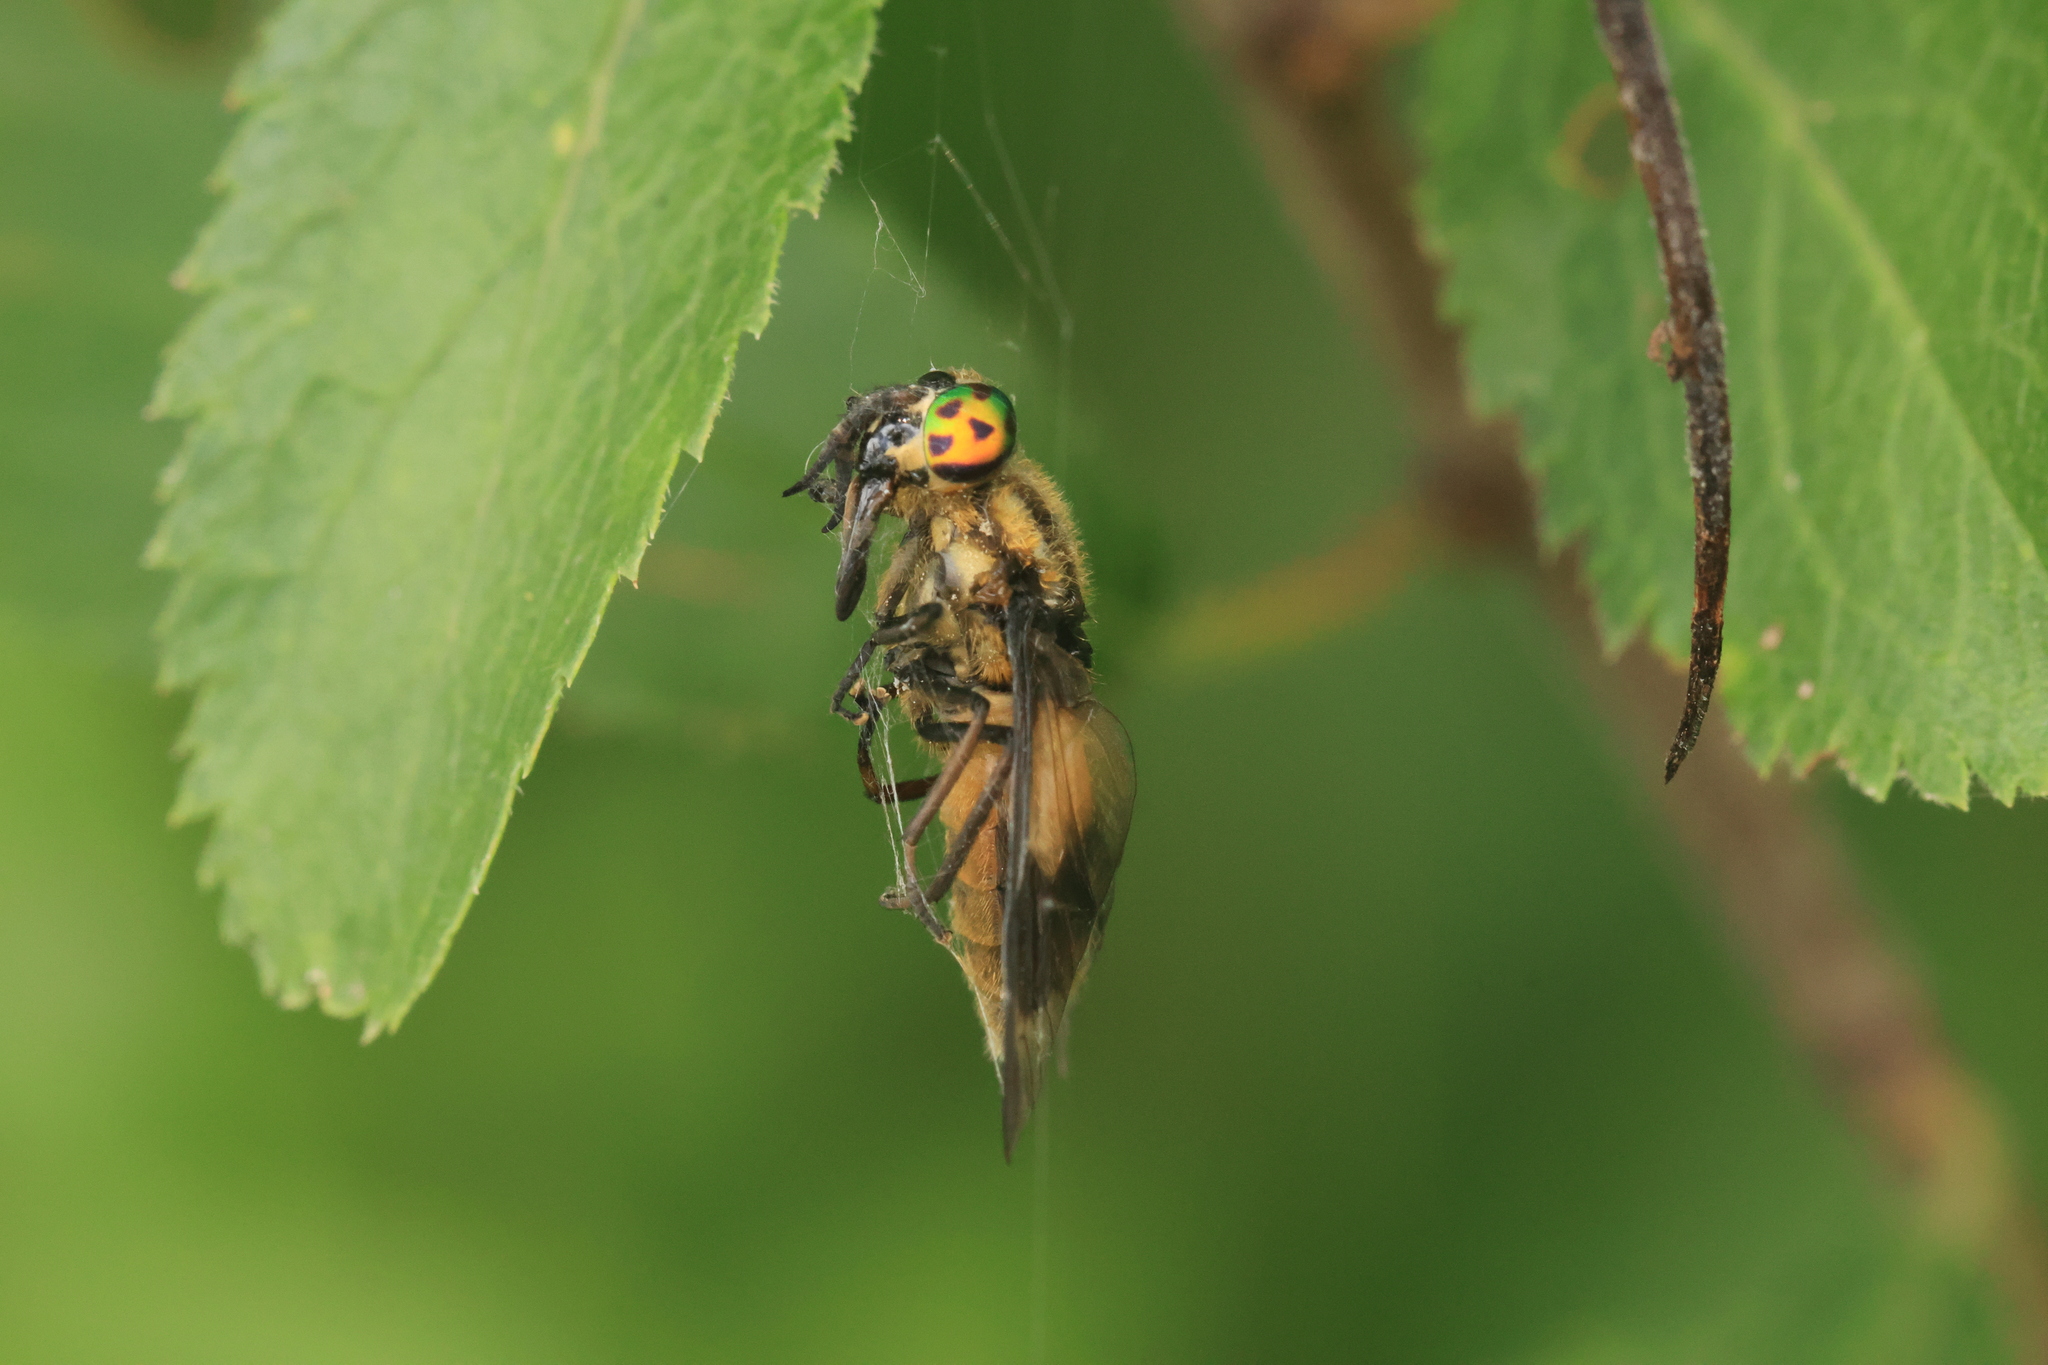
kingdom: Animalia
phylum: Arthropoda
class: Insecta
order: Diptera
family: Tabanidae
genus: Chrysops
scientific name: Chrysops viduatus
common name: Square-spot deerfly
